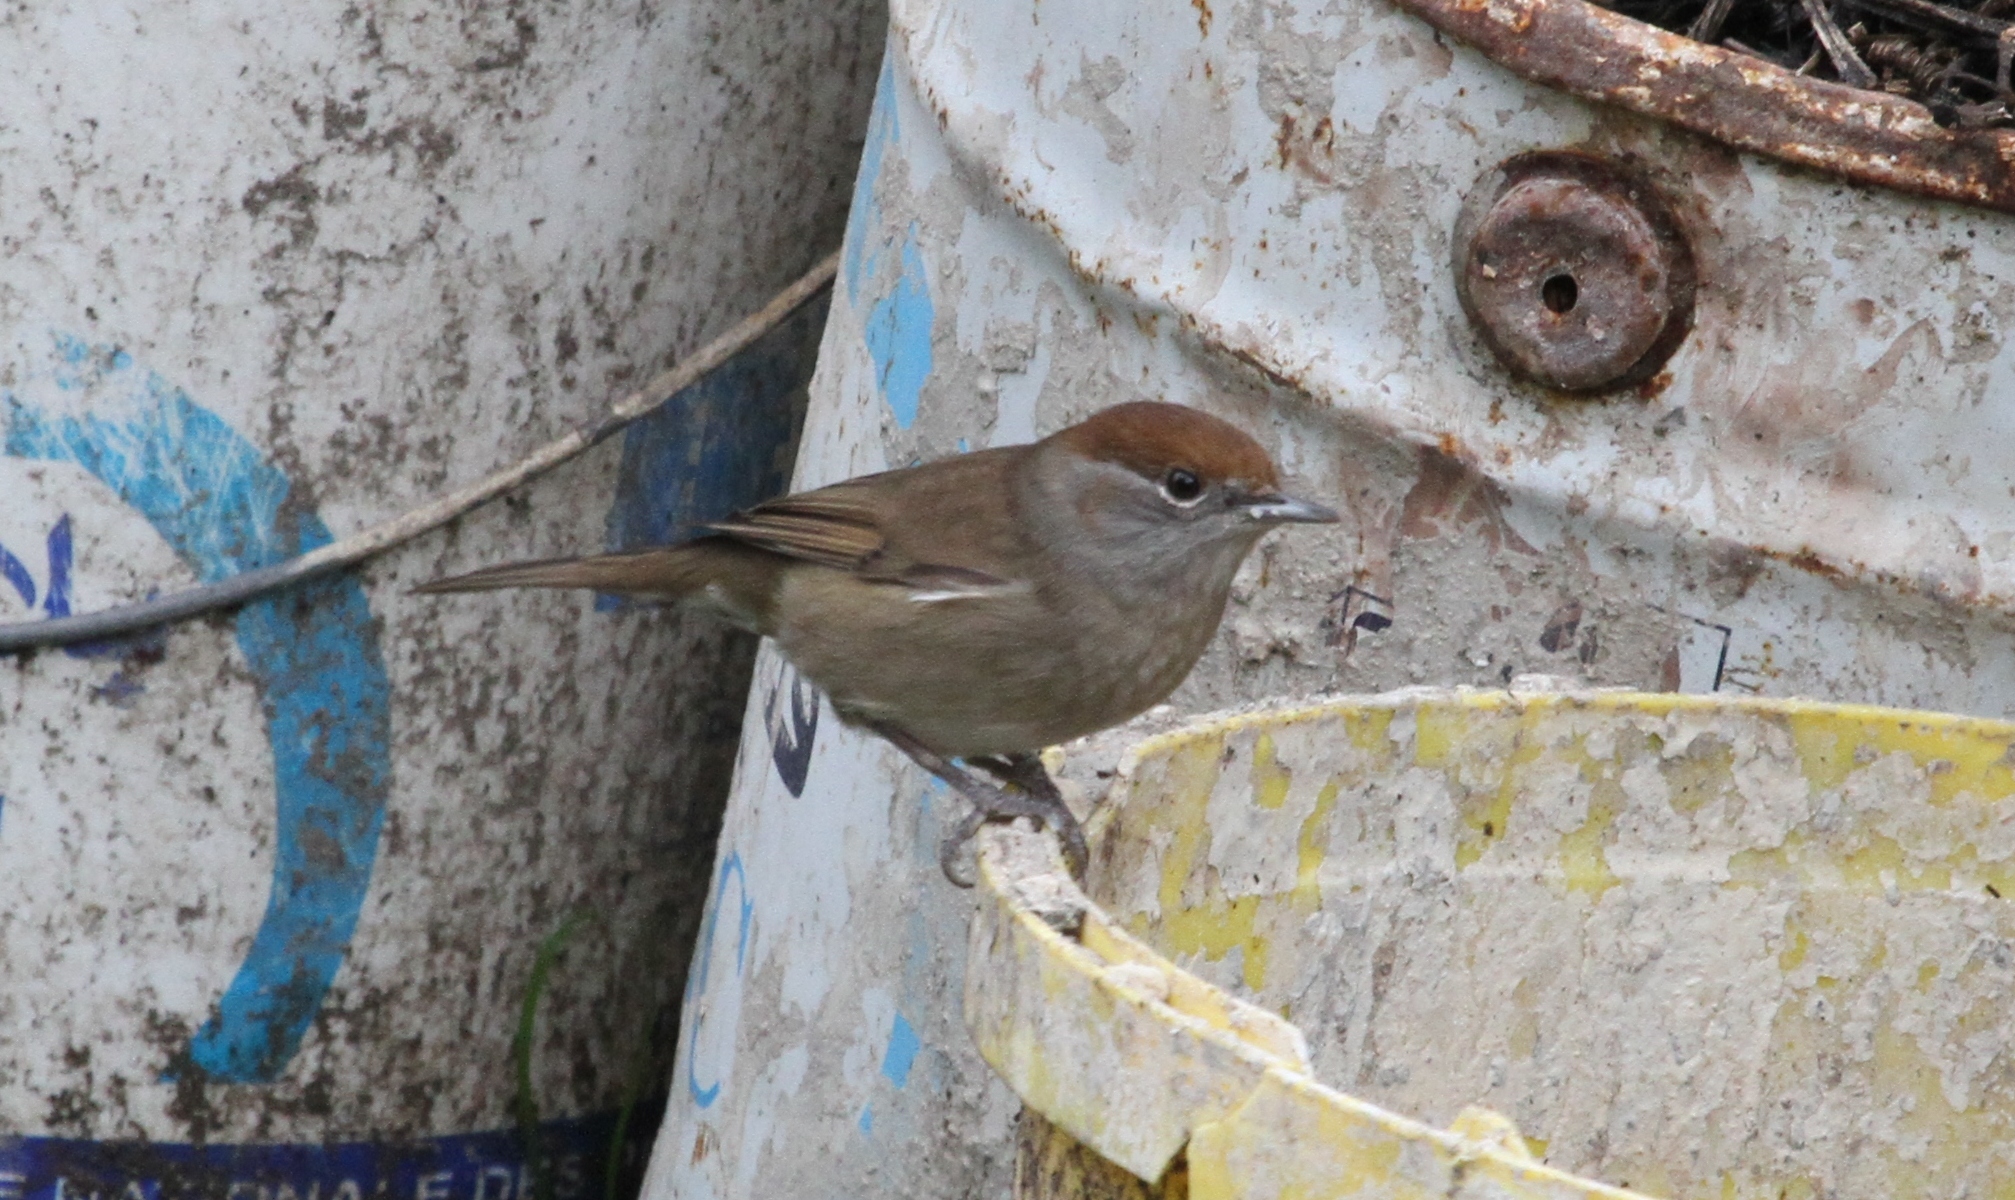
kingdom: Animalia
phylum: Chordata
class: Aves
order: Passeriformes
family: Sylviidae
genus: Sylvia
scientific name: Sylvia atricapilla
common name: Eurasian blackcap
